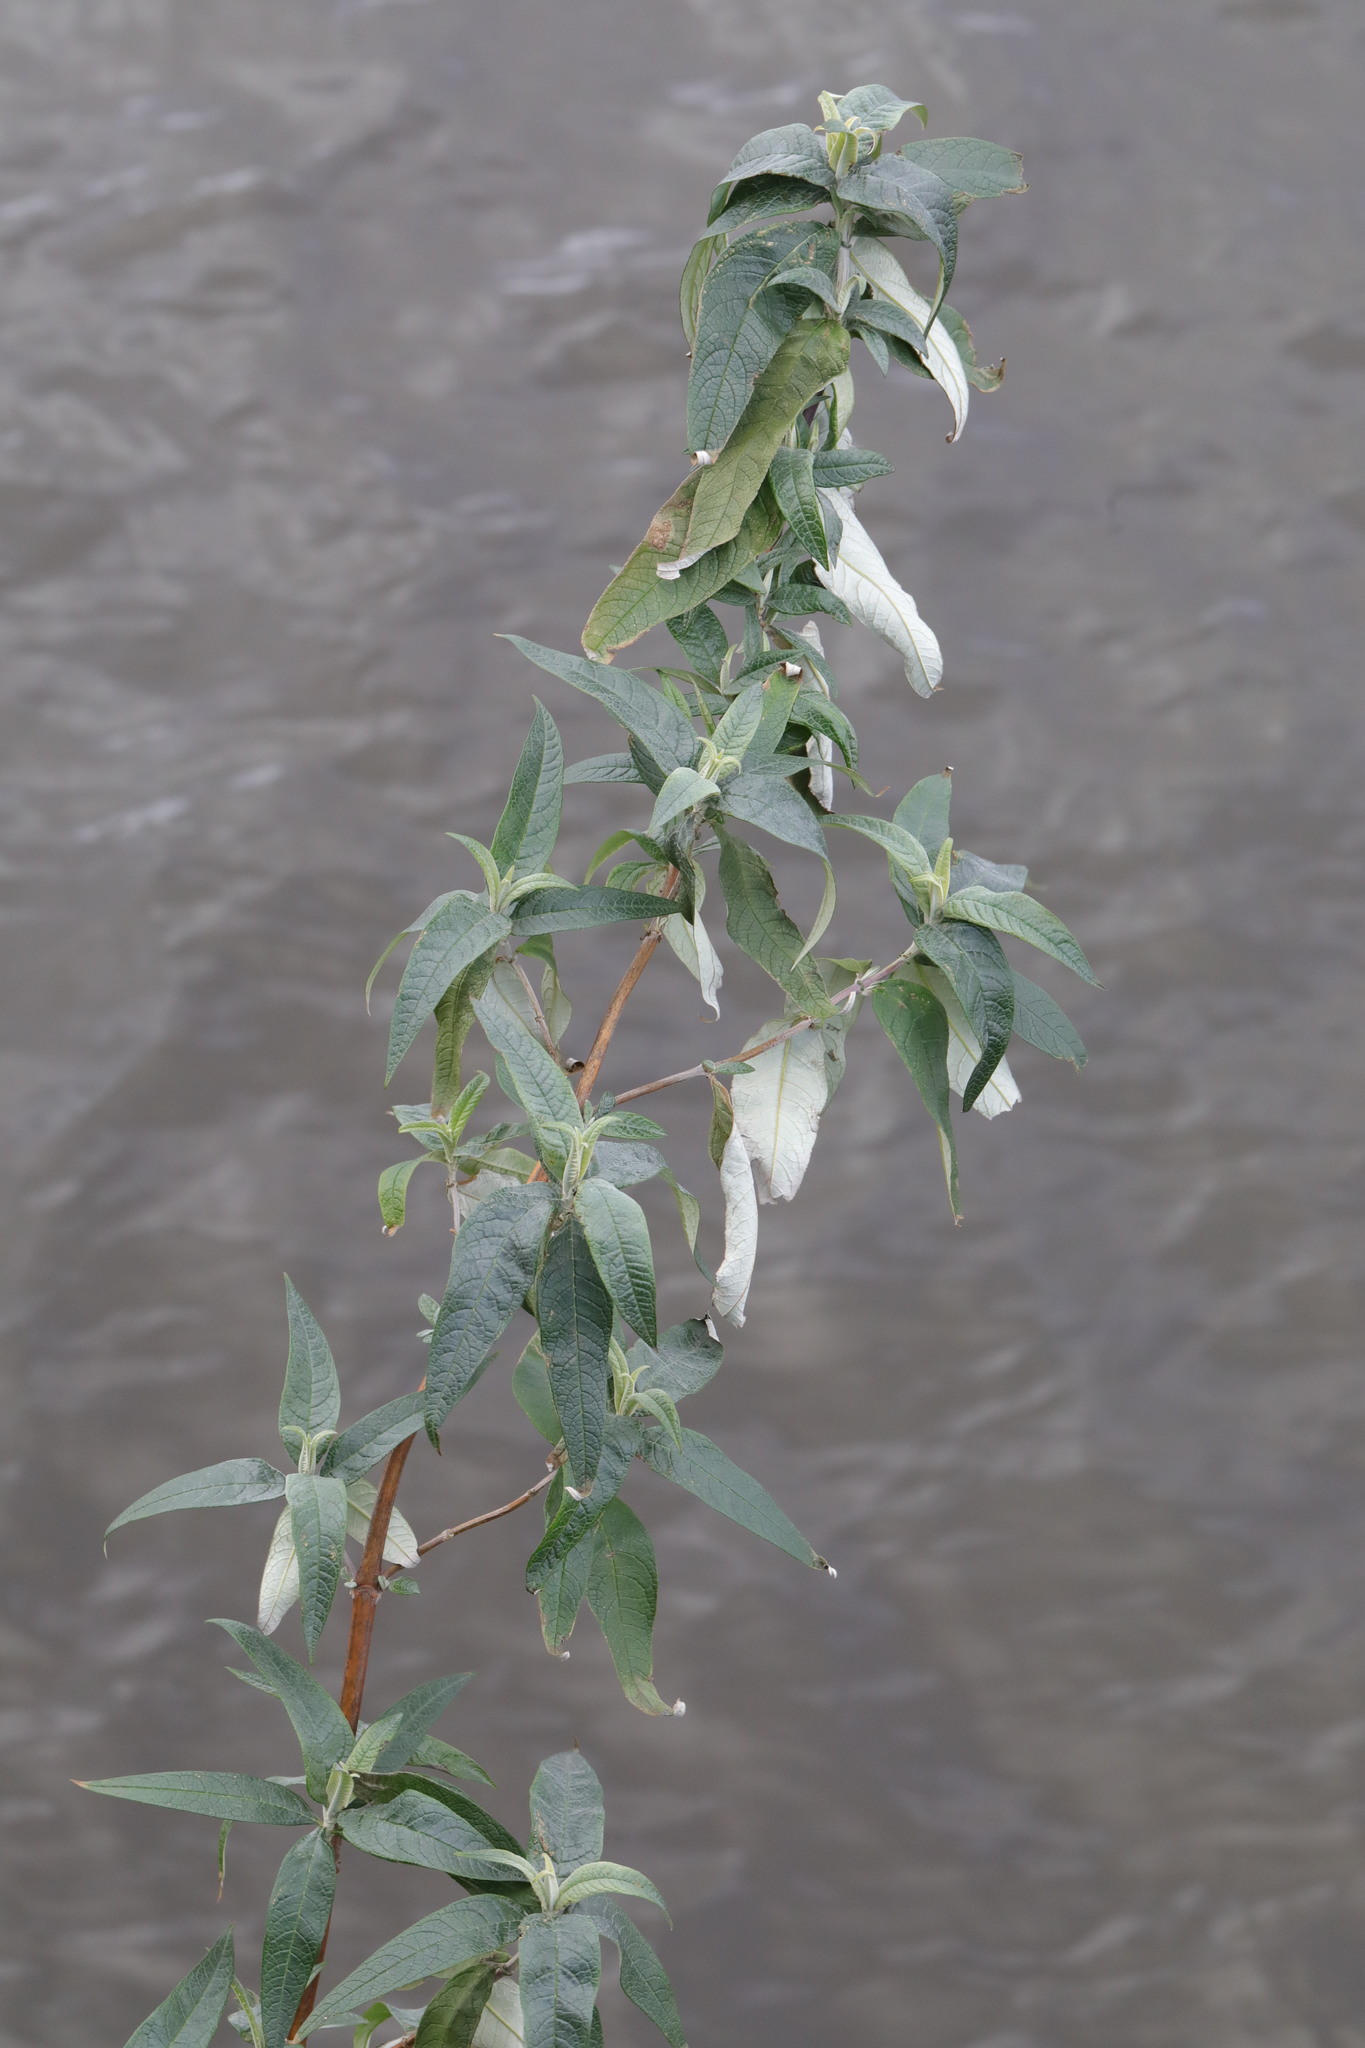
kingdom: Plantae
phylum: Tracheophyta
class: Magnoliopsida
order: Lamiales
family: Scrophulariaceae
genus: Buddleja
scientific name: Buddleja davidii
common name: Butterfly-bush
